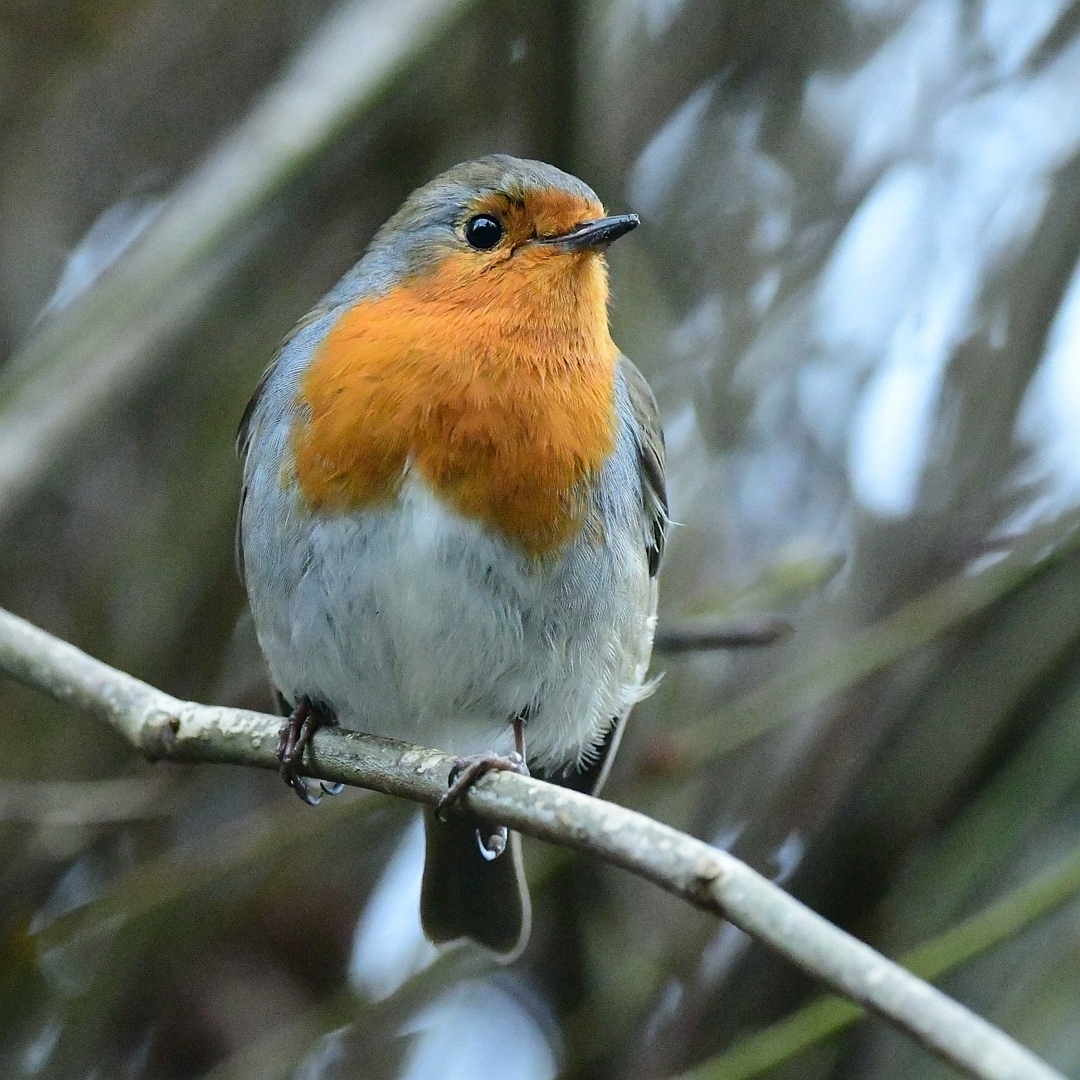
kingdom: Animalia
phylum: Chordata
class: Aves
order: Passeriformes
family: Muscicapidae
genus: Erithacus
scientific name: Erithacus rubecula
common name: European robin
